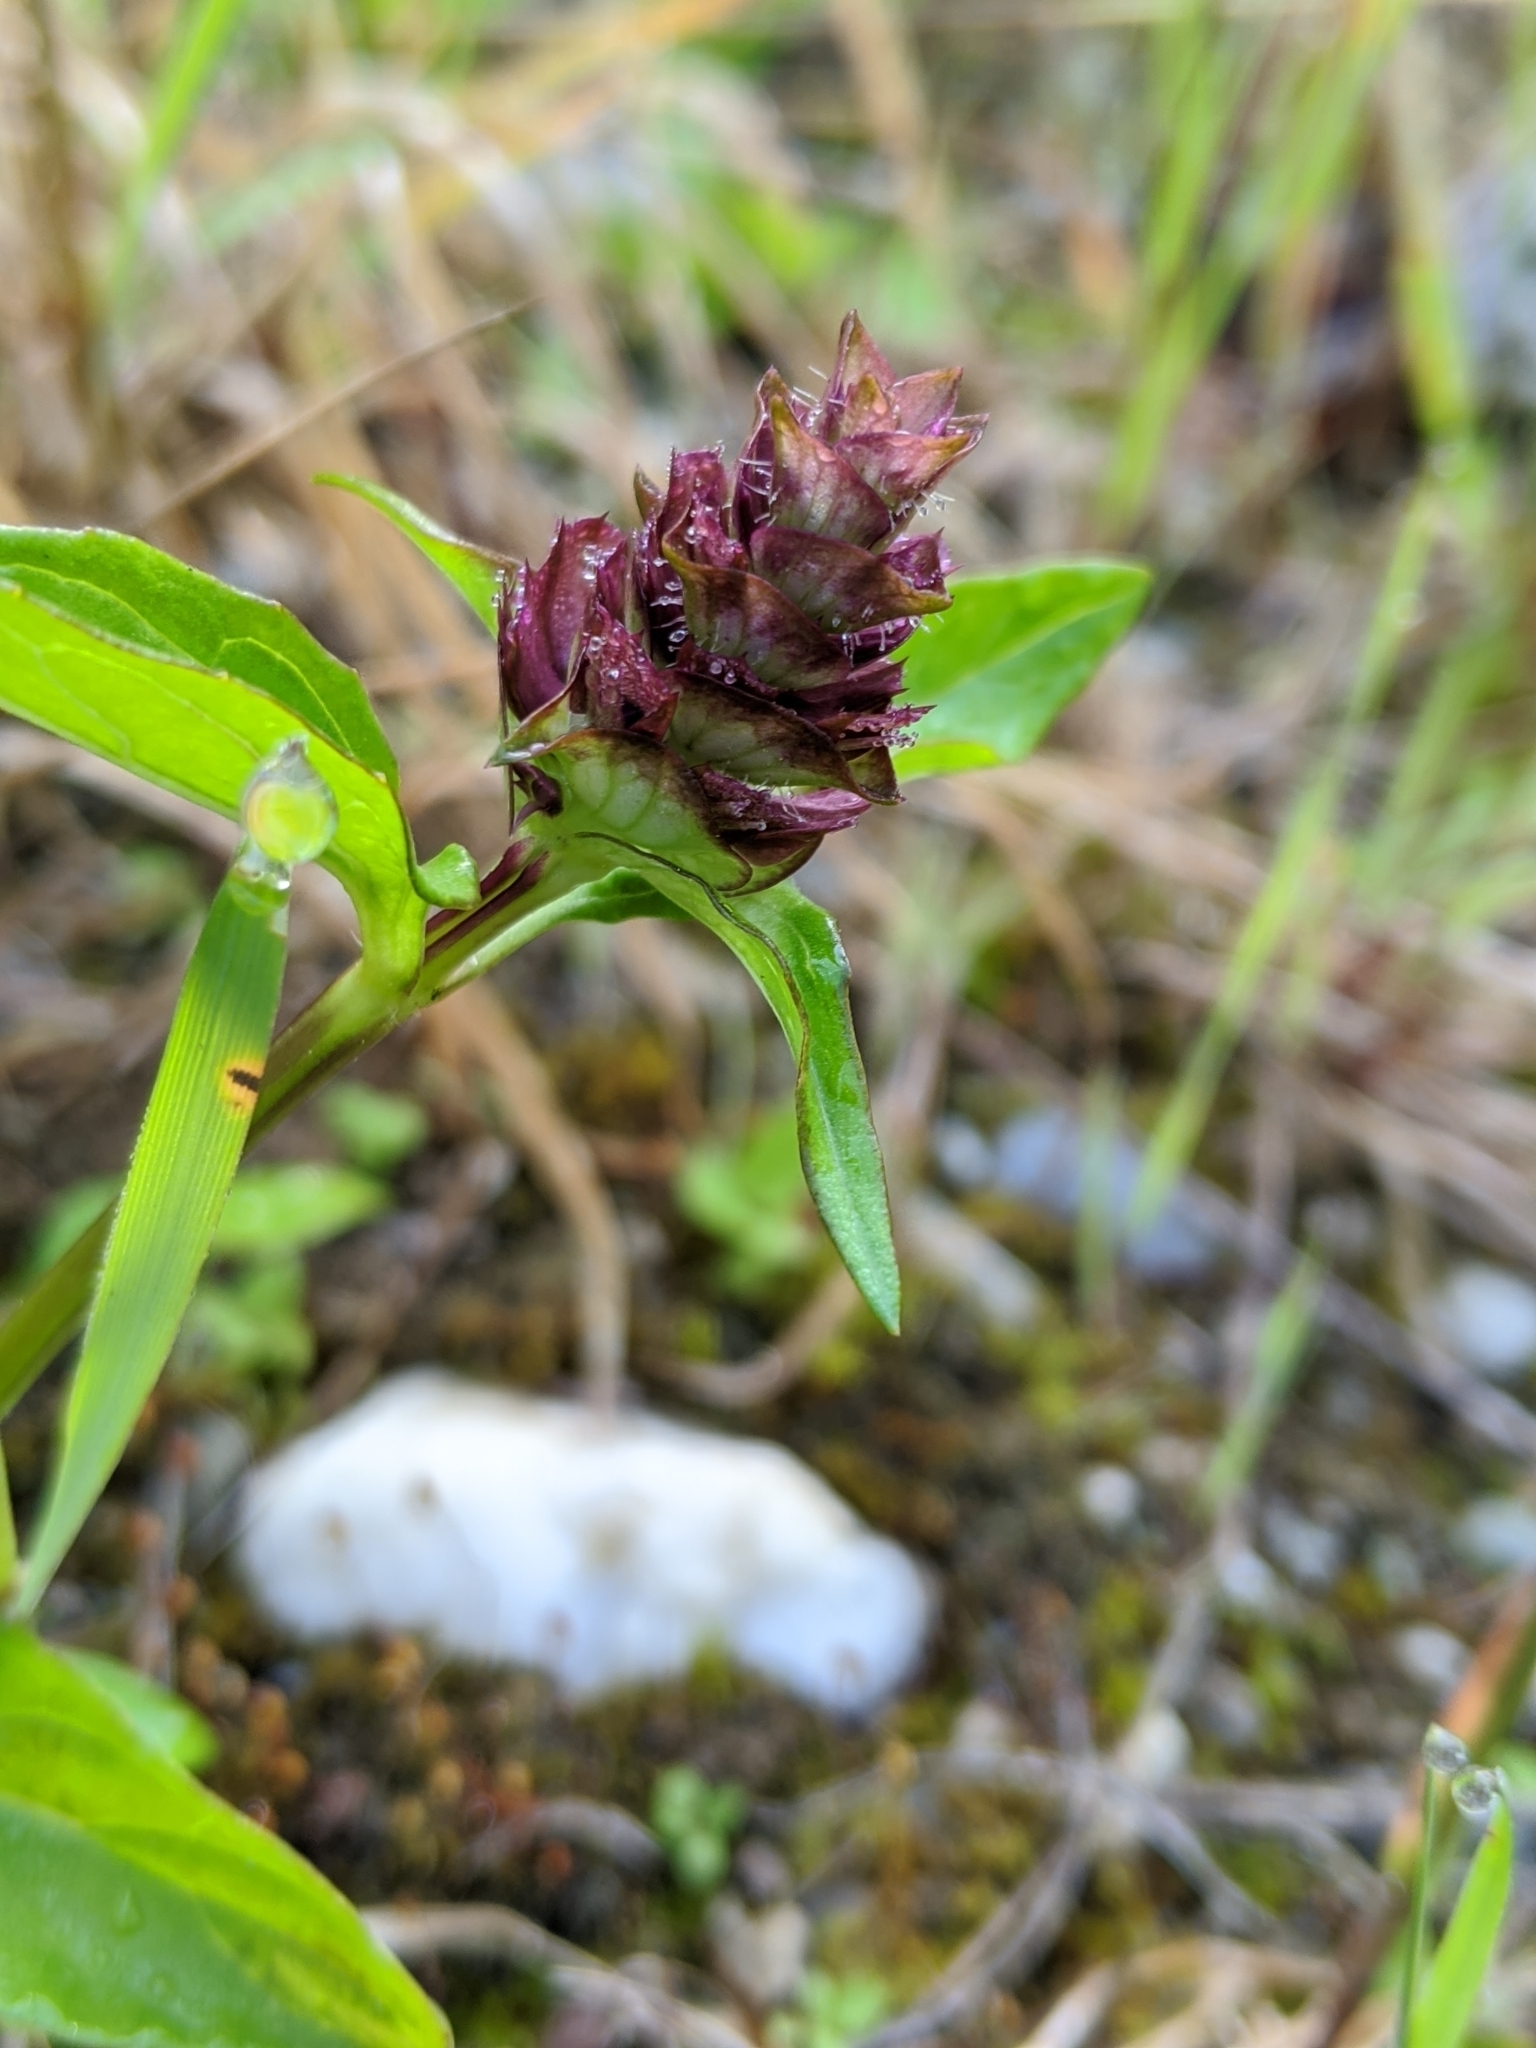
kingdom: Plantae
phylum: Tracheophyta
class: Magnoliopsida
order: Lamiales
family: Lamiaceae
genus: Prunella
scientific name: Prunella vulgaris
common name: Heal-all
